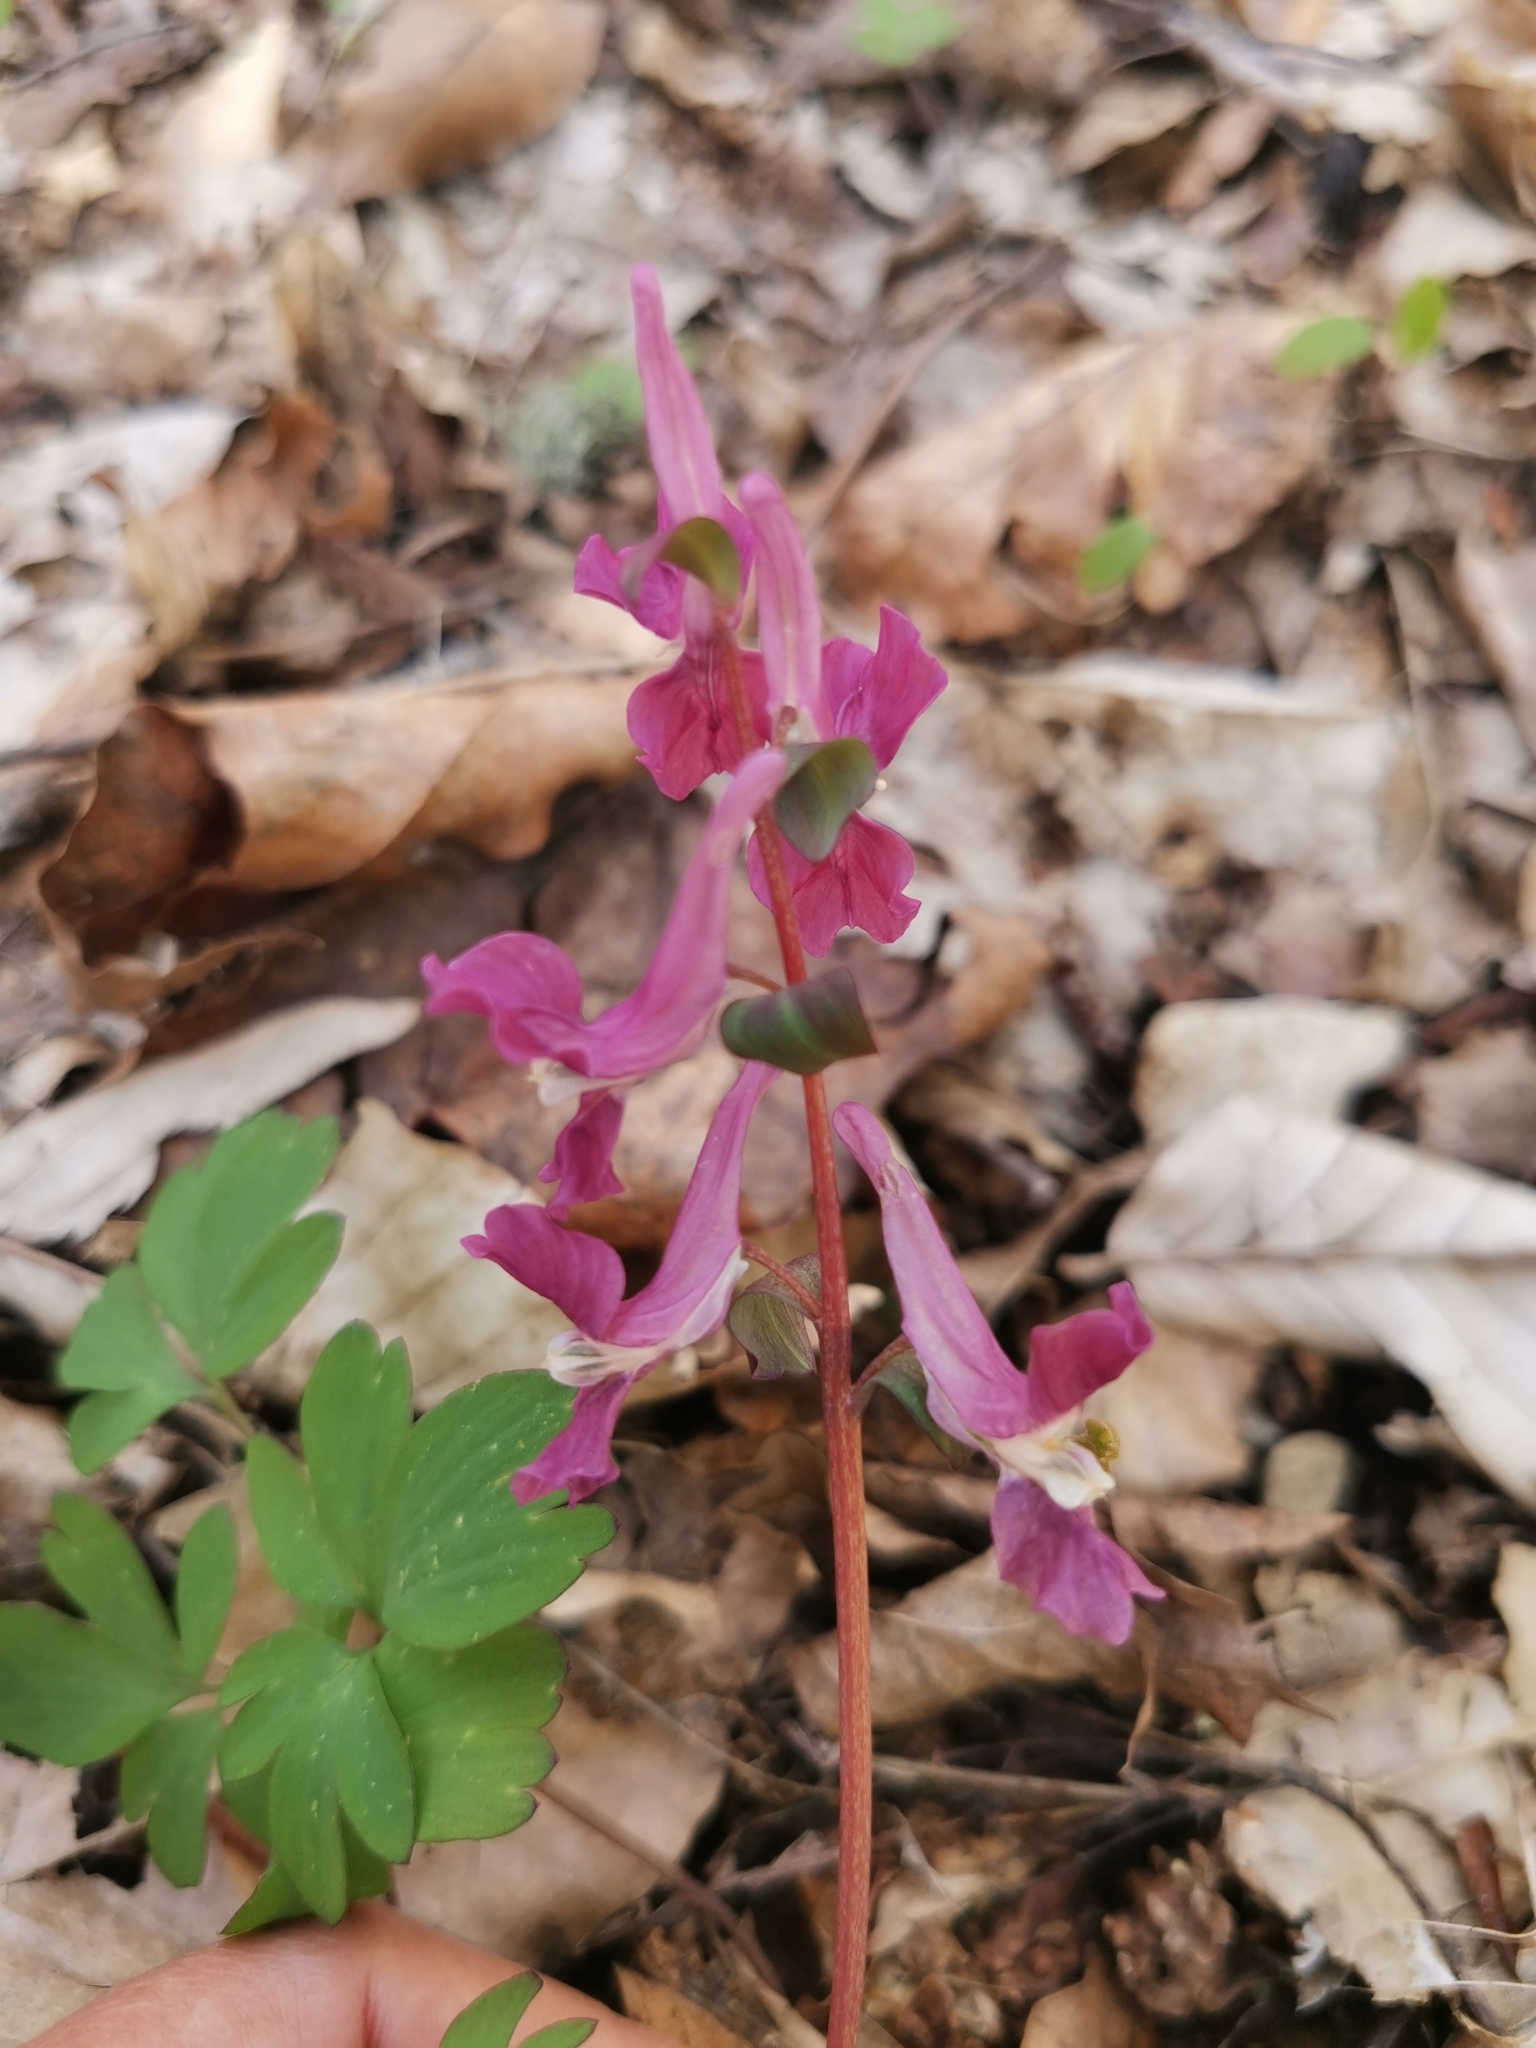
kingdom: Plantae
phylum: Tracheophyta
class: Magnoliopsida
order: Ranunculales
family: Papaveraceae
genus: Corydalis
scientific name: Corydalis caucasica
